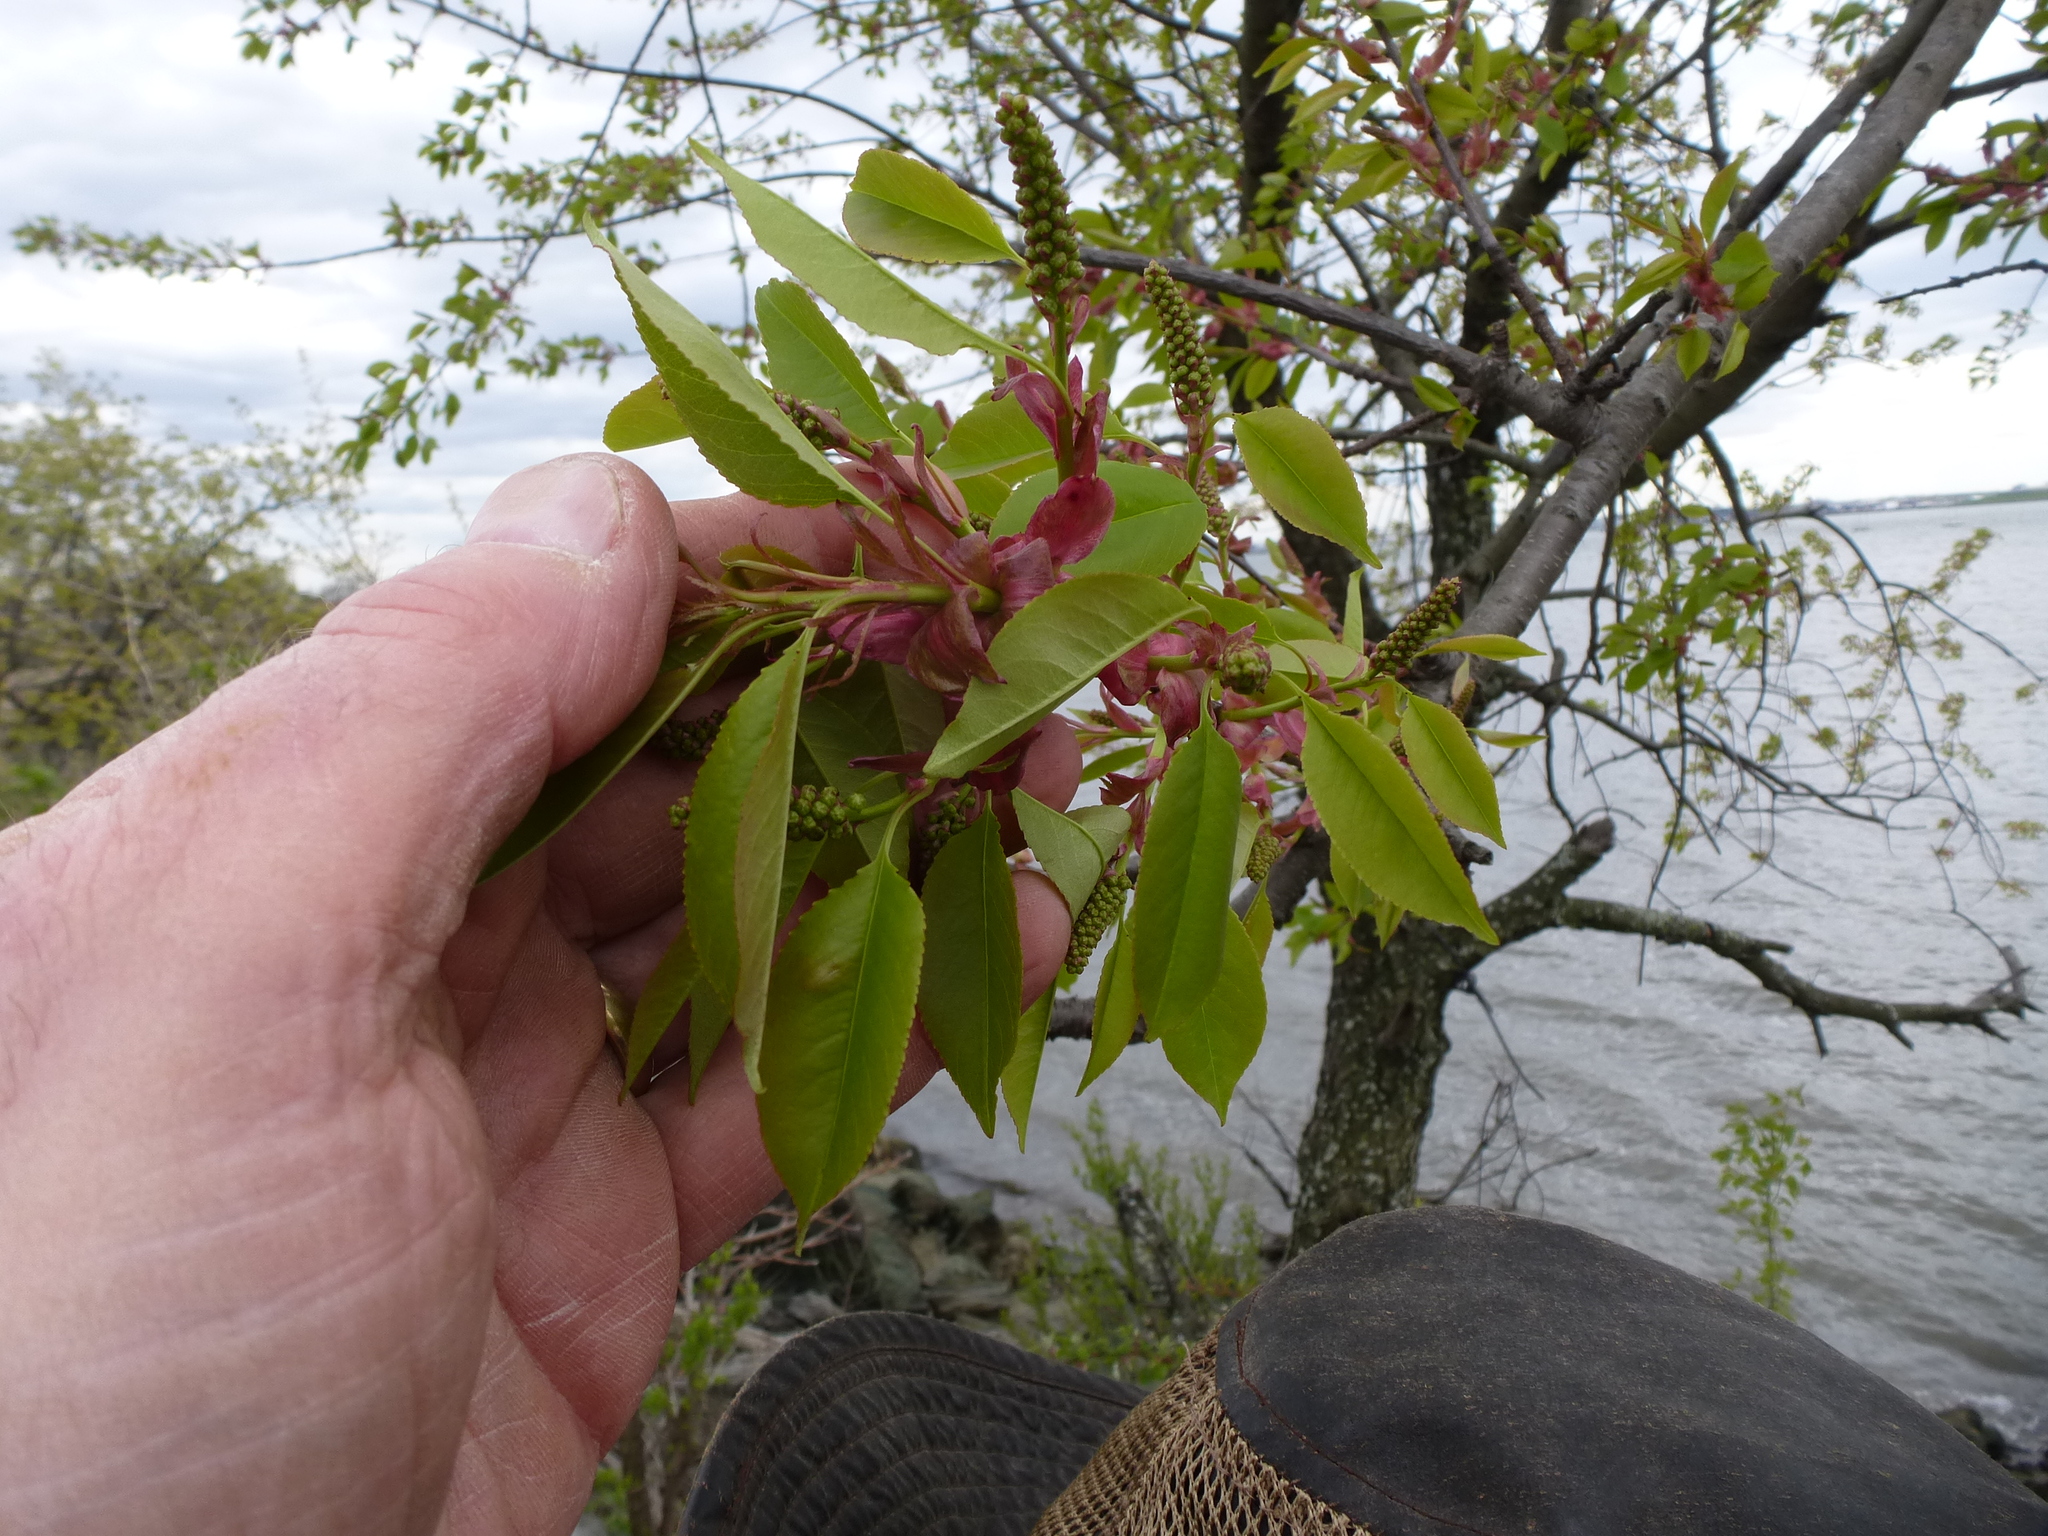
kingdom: Plantae
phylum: Tracheophyta
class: Magnoliopsida
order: Rosales
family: Rosaceae
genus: Prunus
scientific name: Prunus serotina
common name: Black cherry
